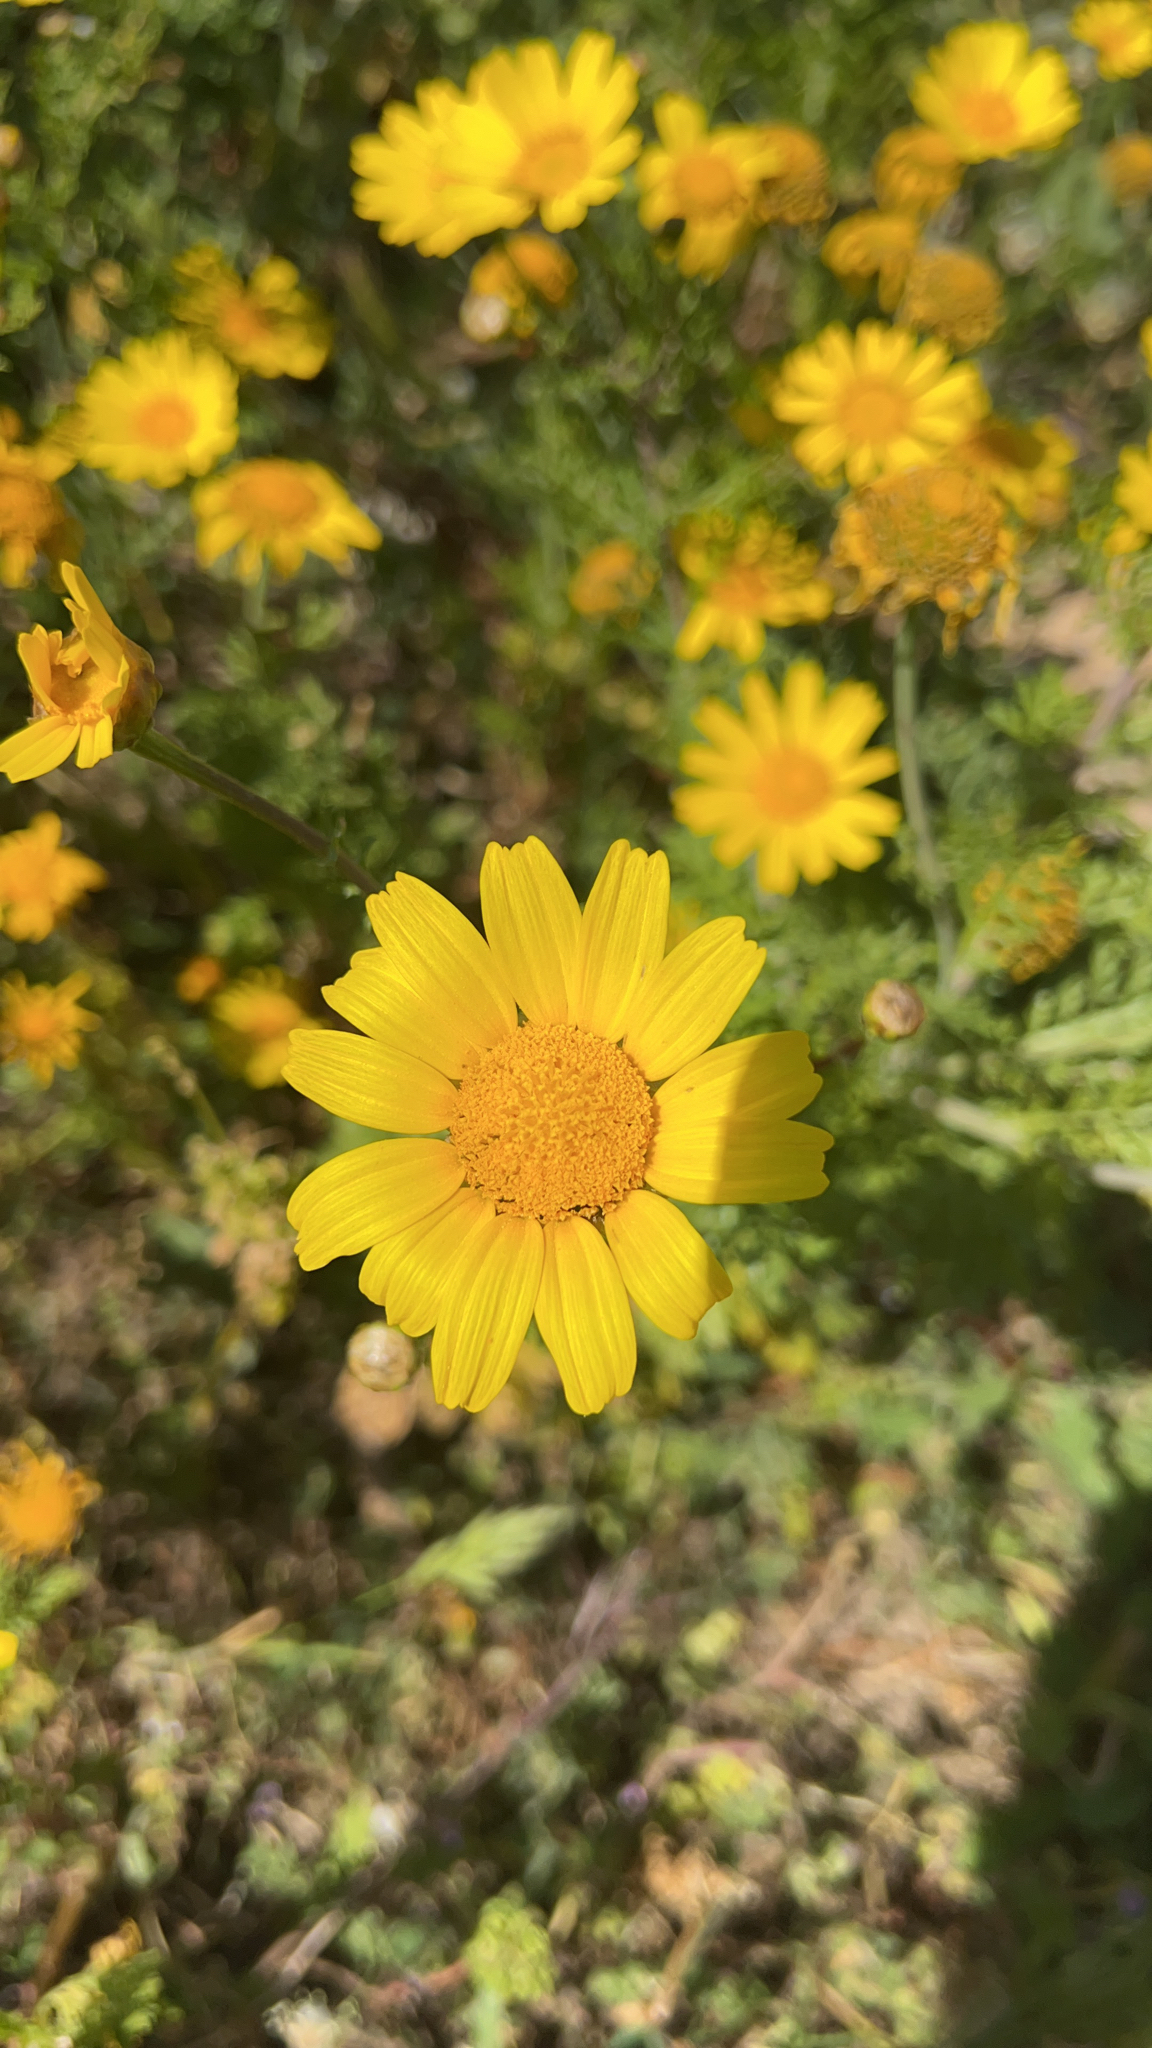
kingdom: Plantae
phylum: Tracheophyta
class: Magnoliopsida
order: Asterales
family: Asteraceae
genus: Glebionis
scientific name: Glebionis coronaria
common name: Crowndaisy
